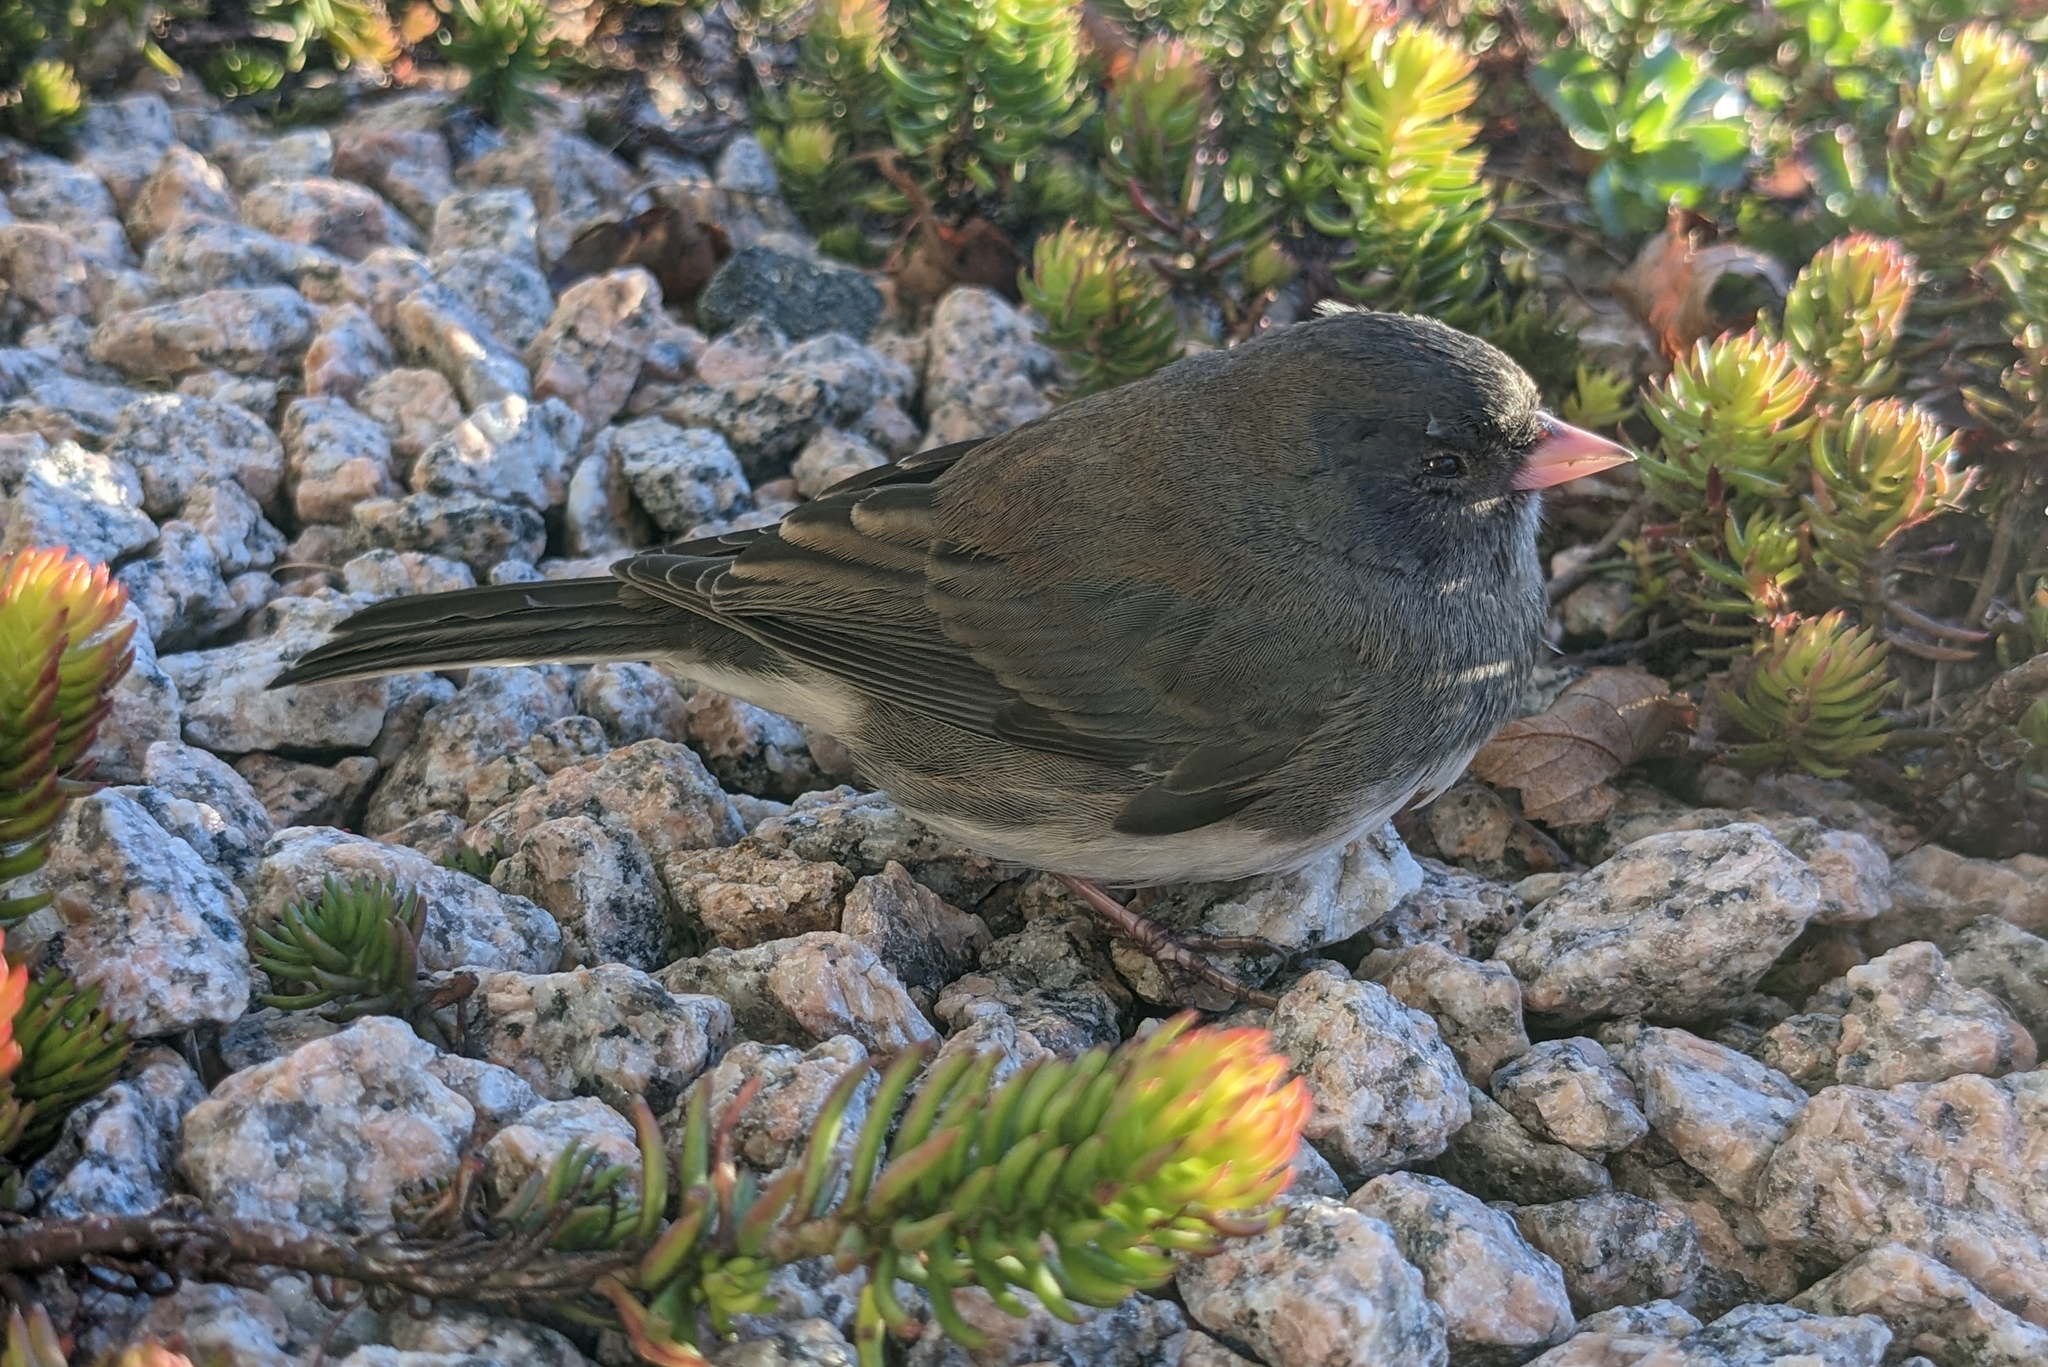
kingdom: Animalia
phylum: Chordata
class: Aves
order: Passeriformes
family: Passerellidae
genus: Junco
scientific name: Junco hyemalis
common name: Dark-eyed junco
